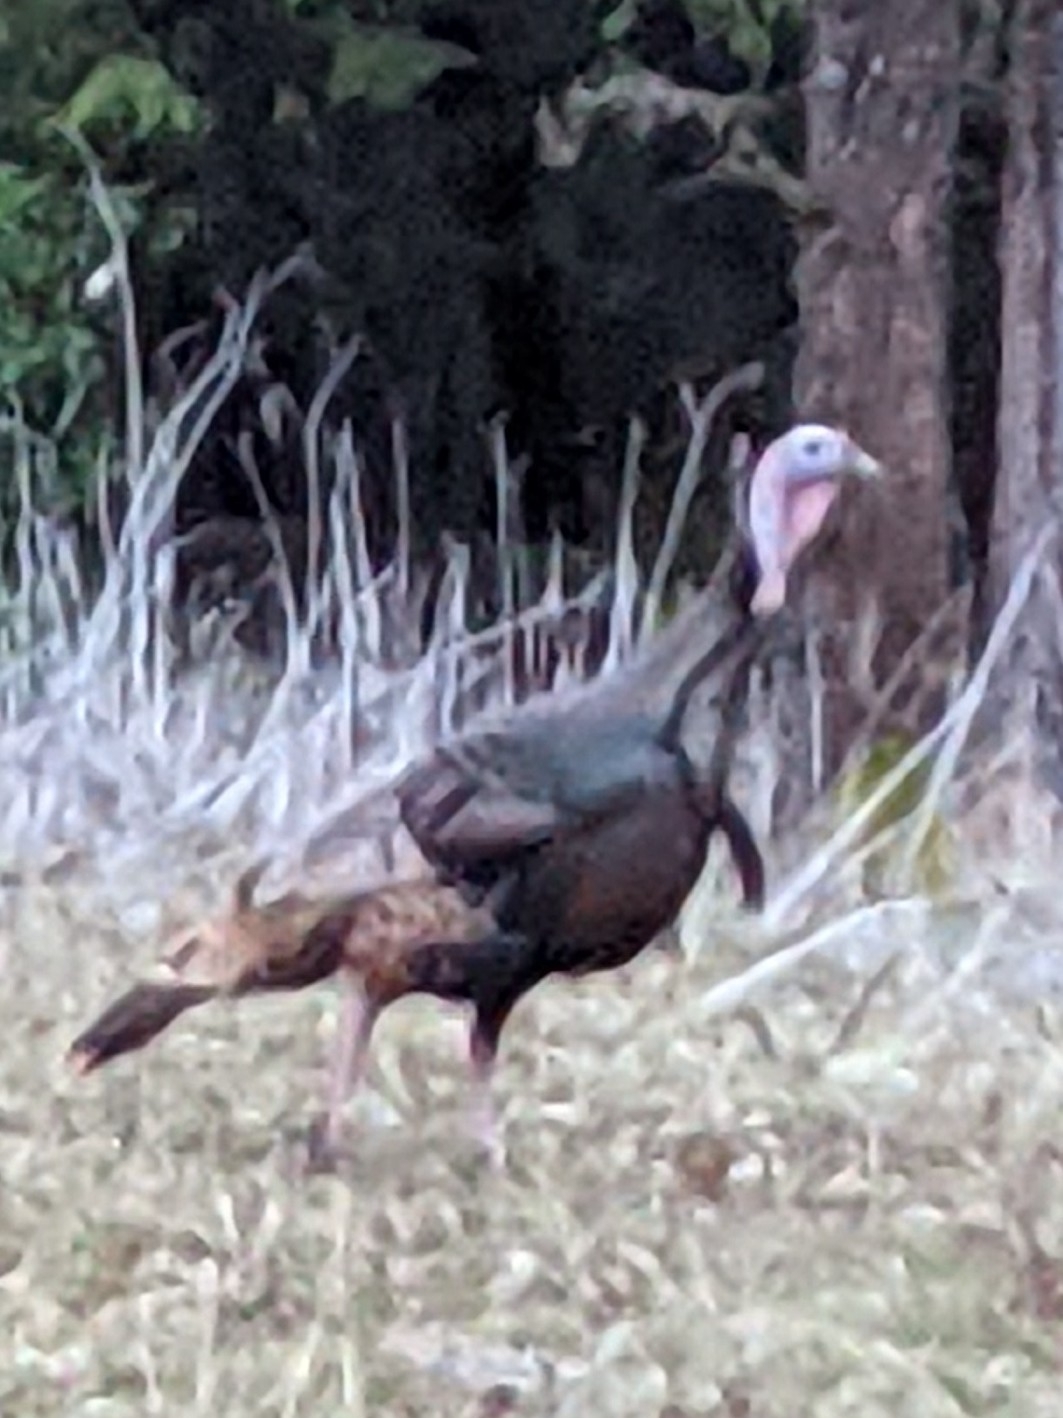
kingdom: Animalia
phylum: Chordata
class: Aves
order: Galliformes
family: Phasianidae
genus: Meleagris
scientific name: Meleagris gallopavo
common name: Wild turkey
